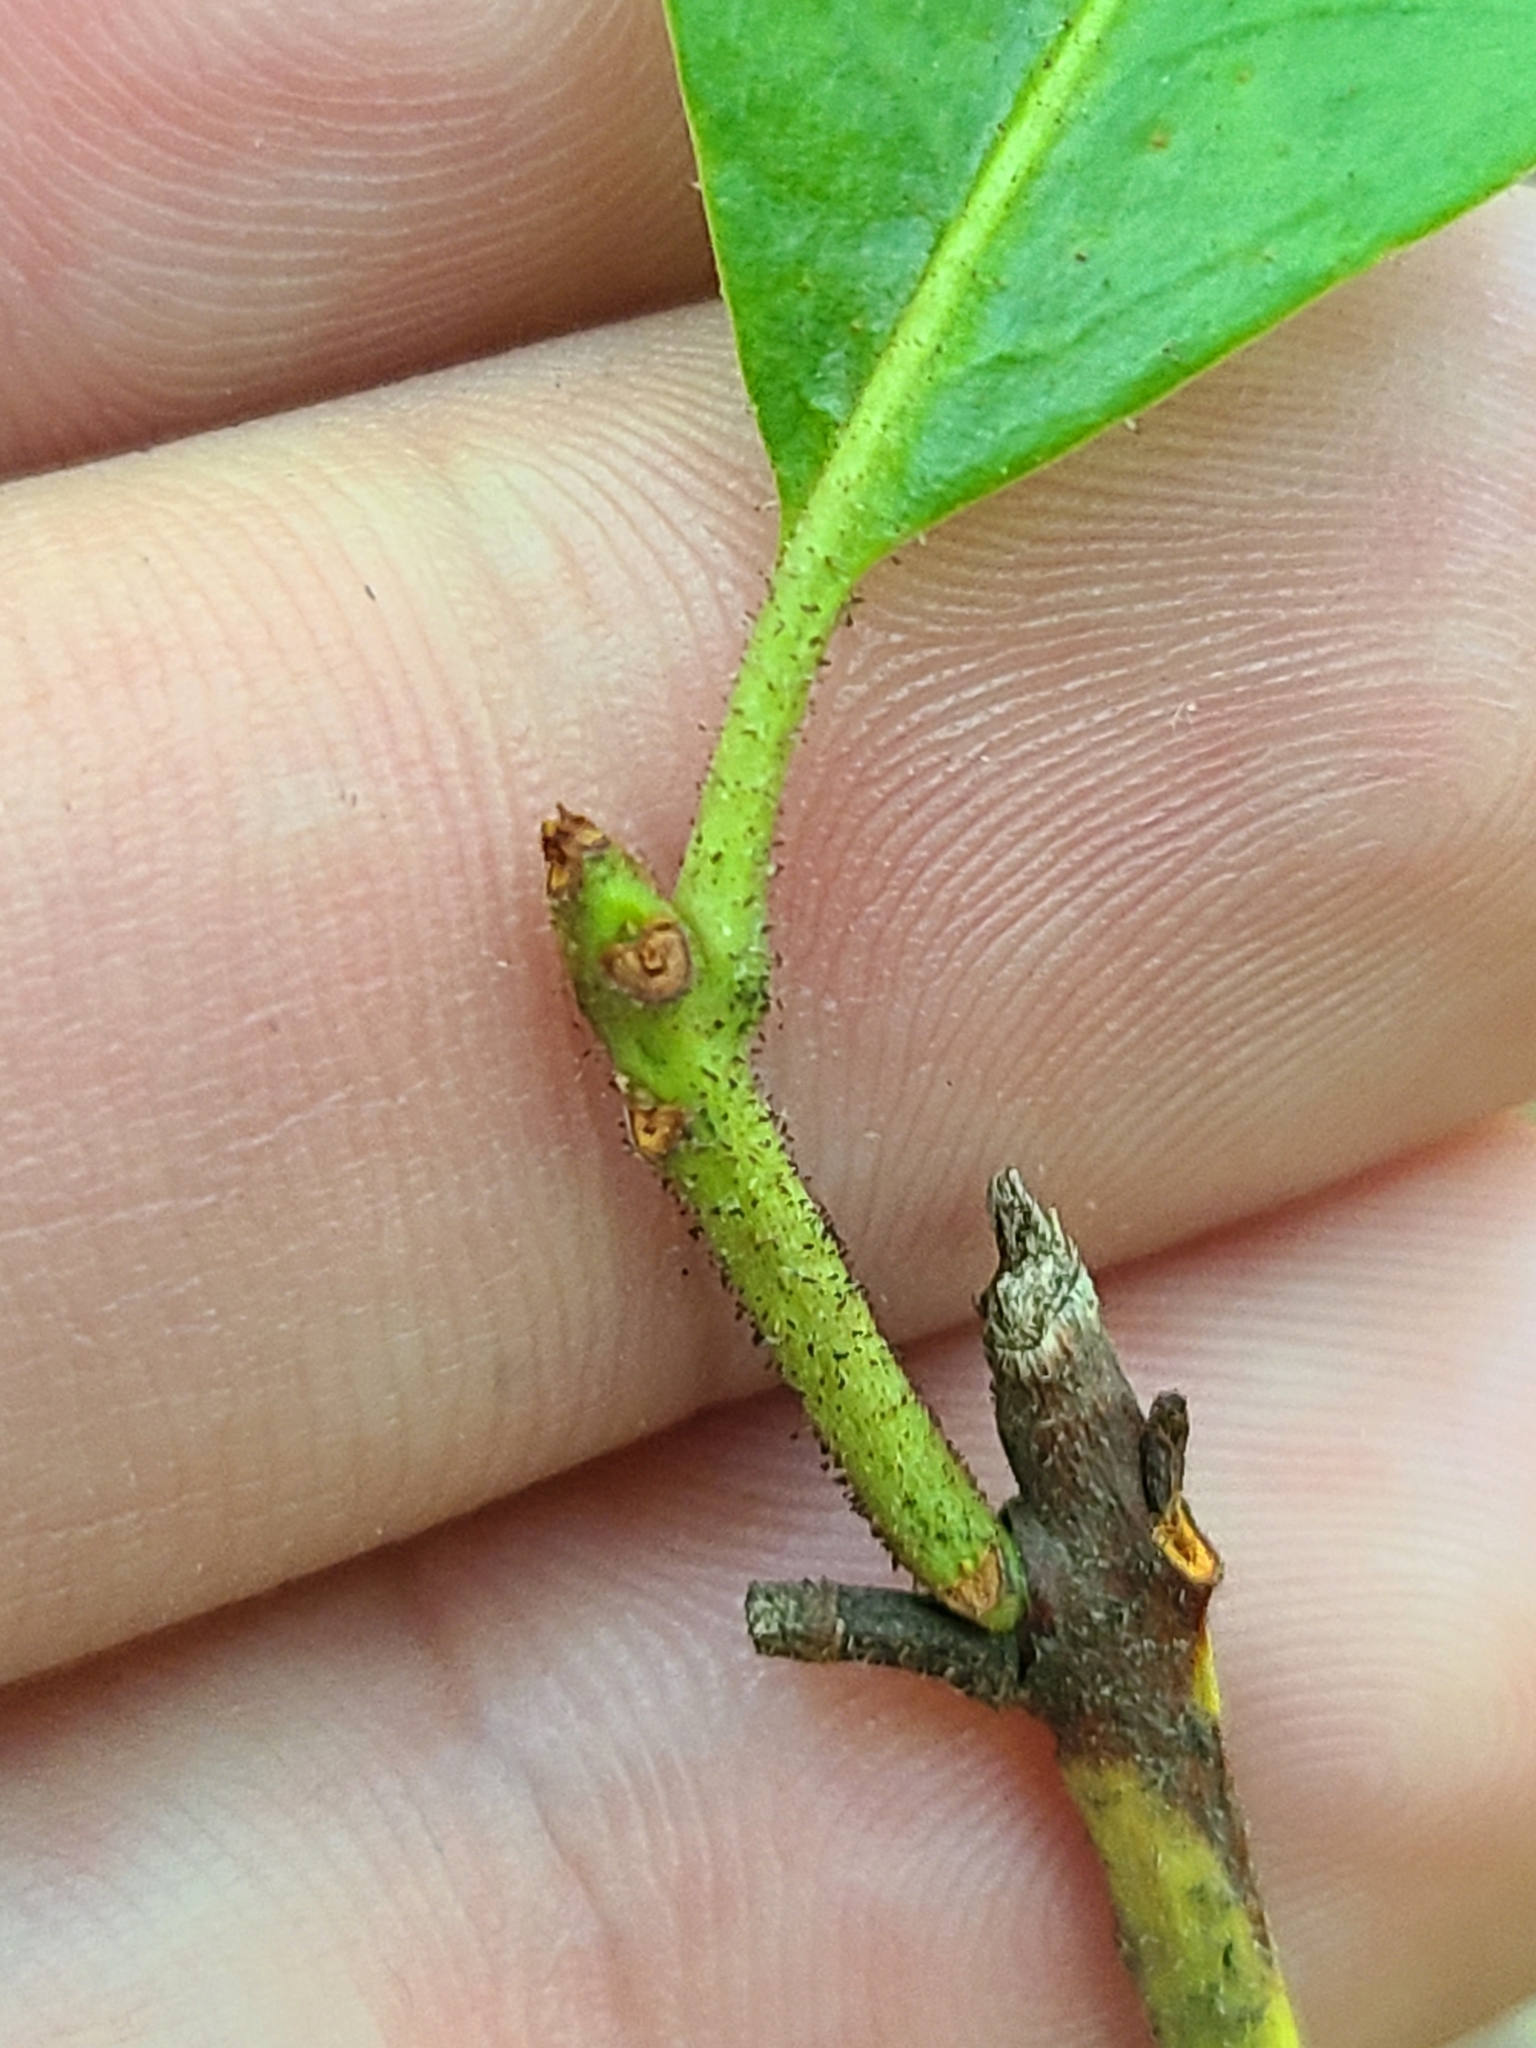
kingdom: Plantae
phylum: Tracheophyta
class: Magnoliopsida
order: Ericales
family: Ericaceae
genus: Kalmia
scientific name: Kalmia latifolia
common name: Mountain-laurel
